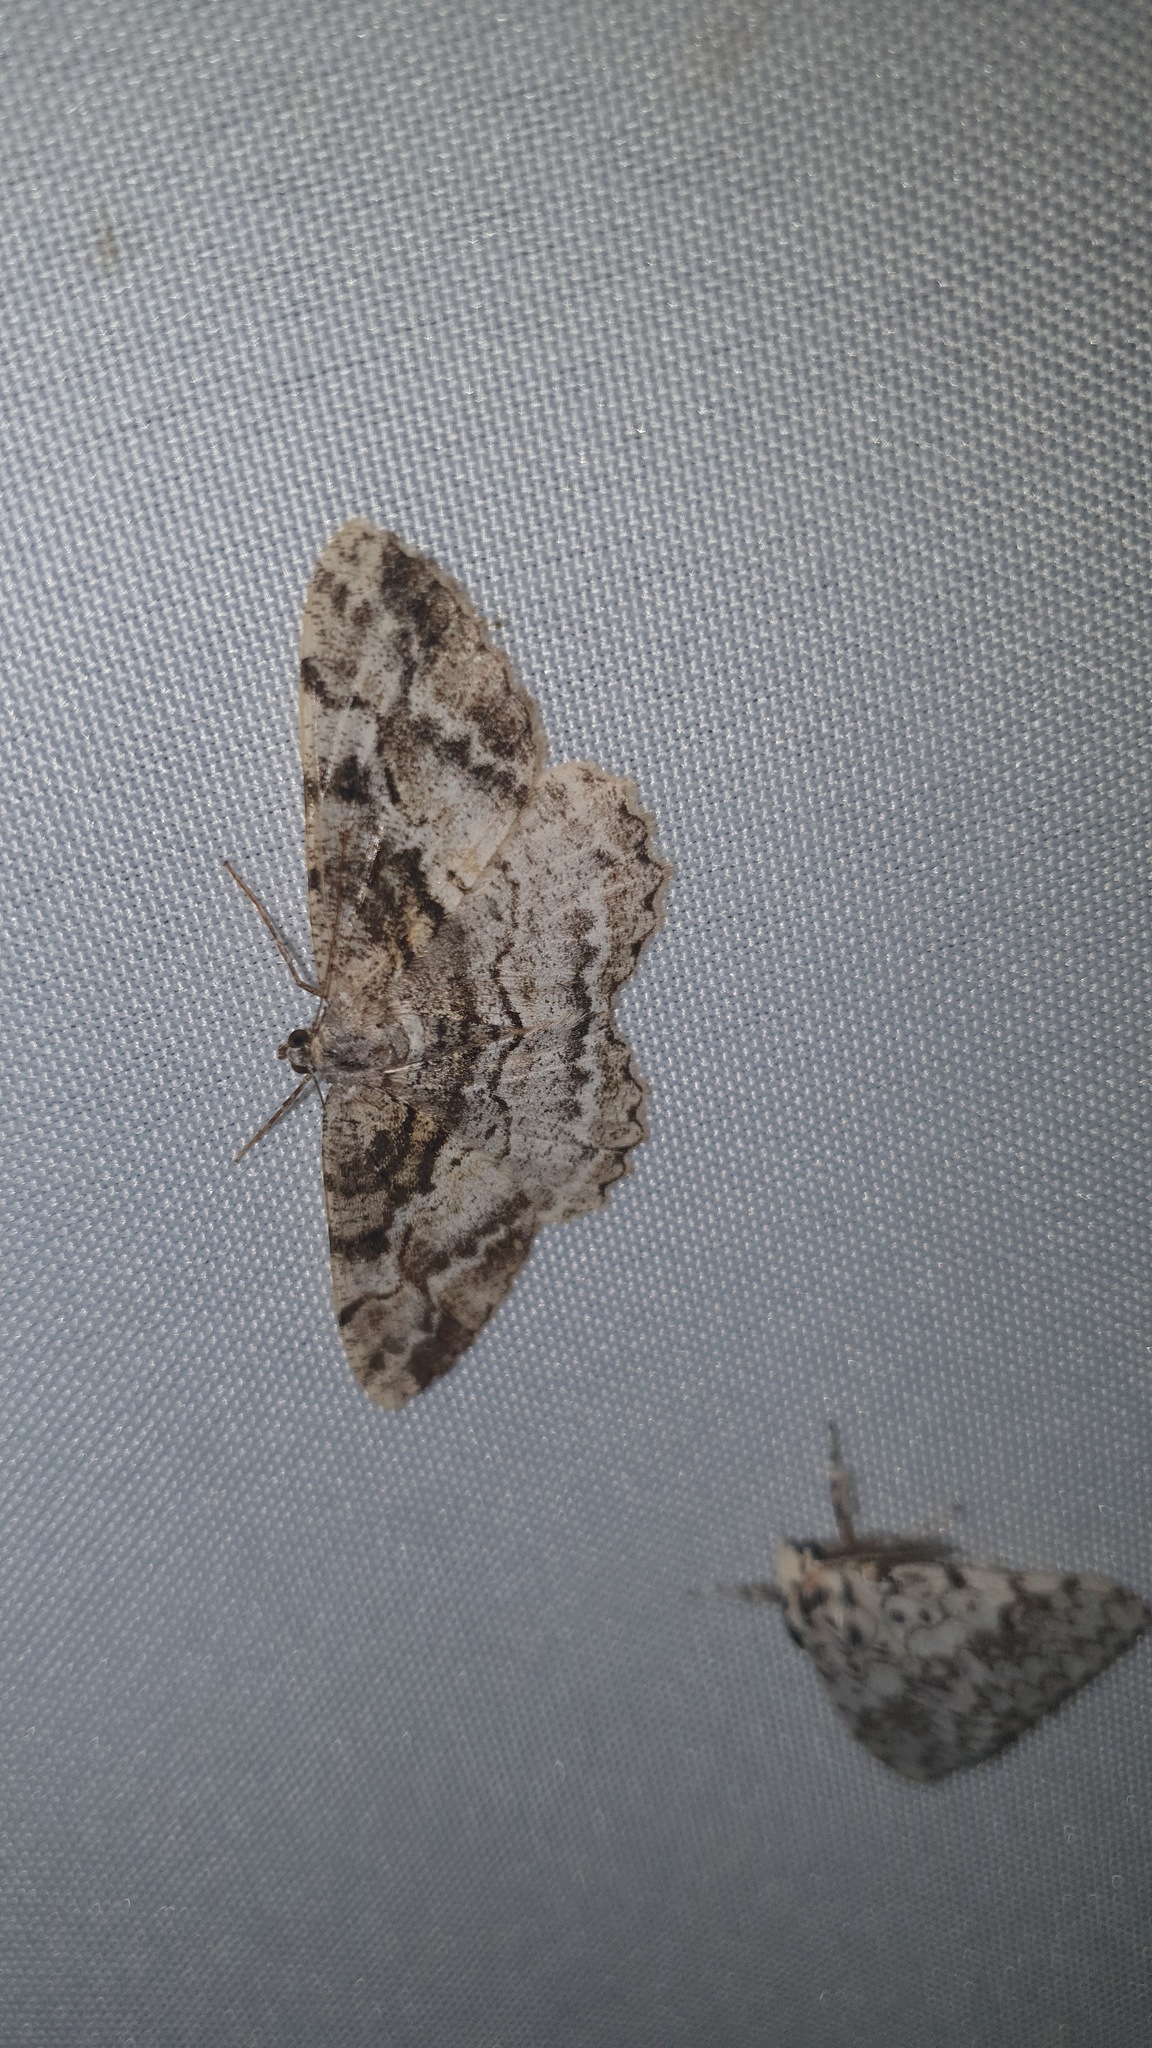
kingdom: Animalia
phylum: Arthropoda
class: Insecta
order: Lepidoptera
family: Geometridae
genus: Alcis
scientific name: Alcis repandata
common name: Mottled beauty
